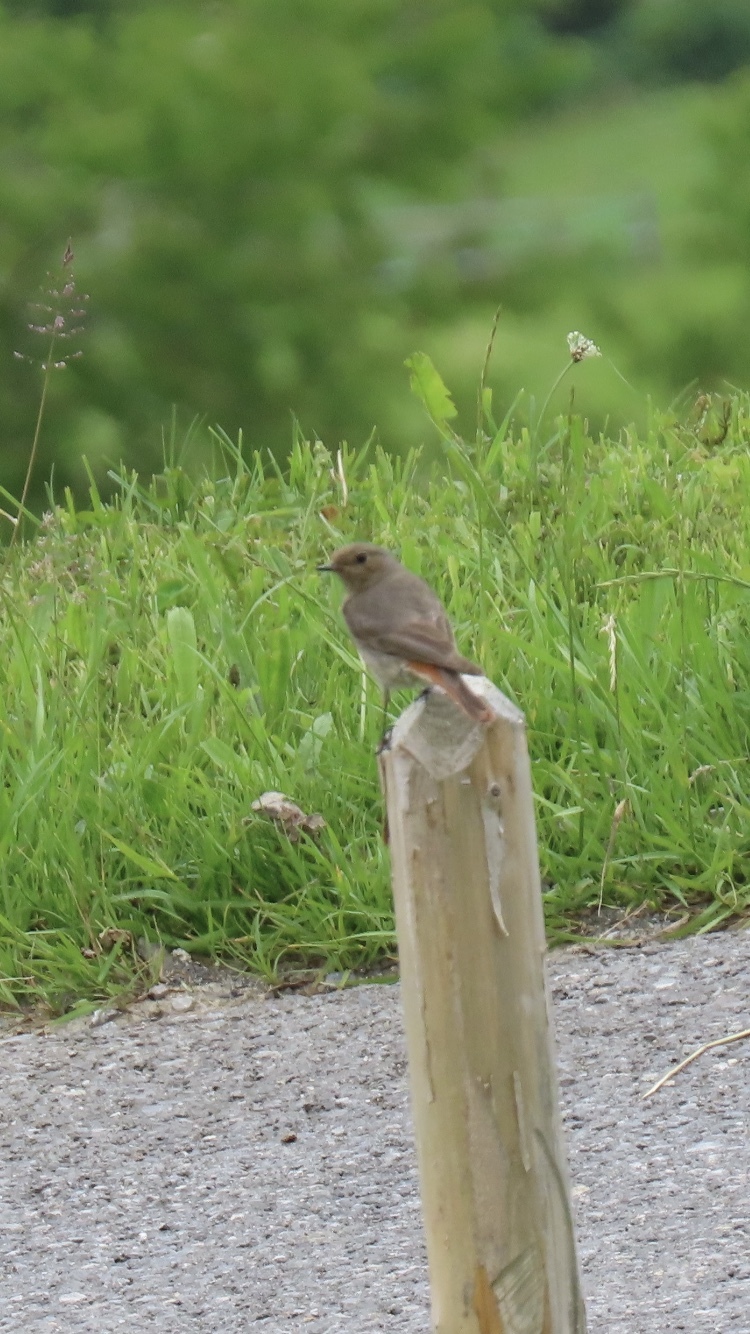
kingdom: Animalia
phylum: Chordata
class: Aves
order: Passeriformes
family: Muscicapidae
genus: Phoenicurus
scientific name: Phoenicurus ochruros
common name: Black redstart
